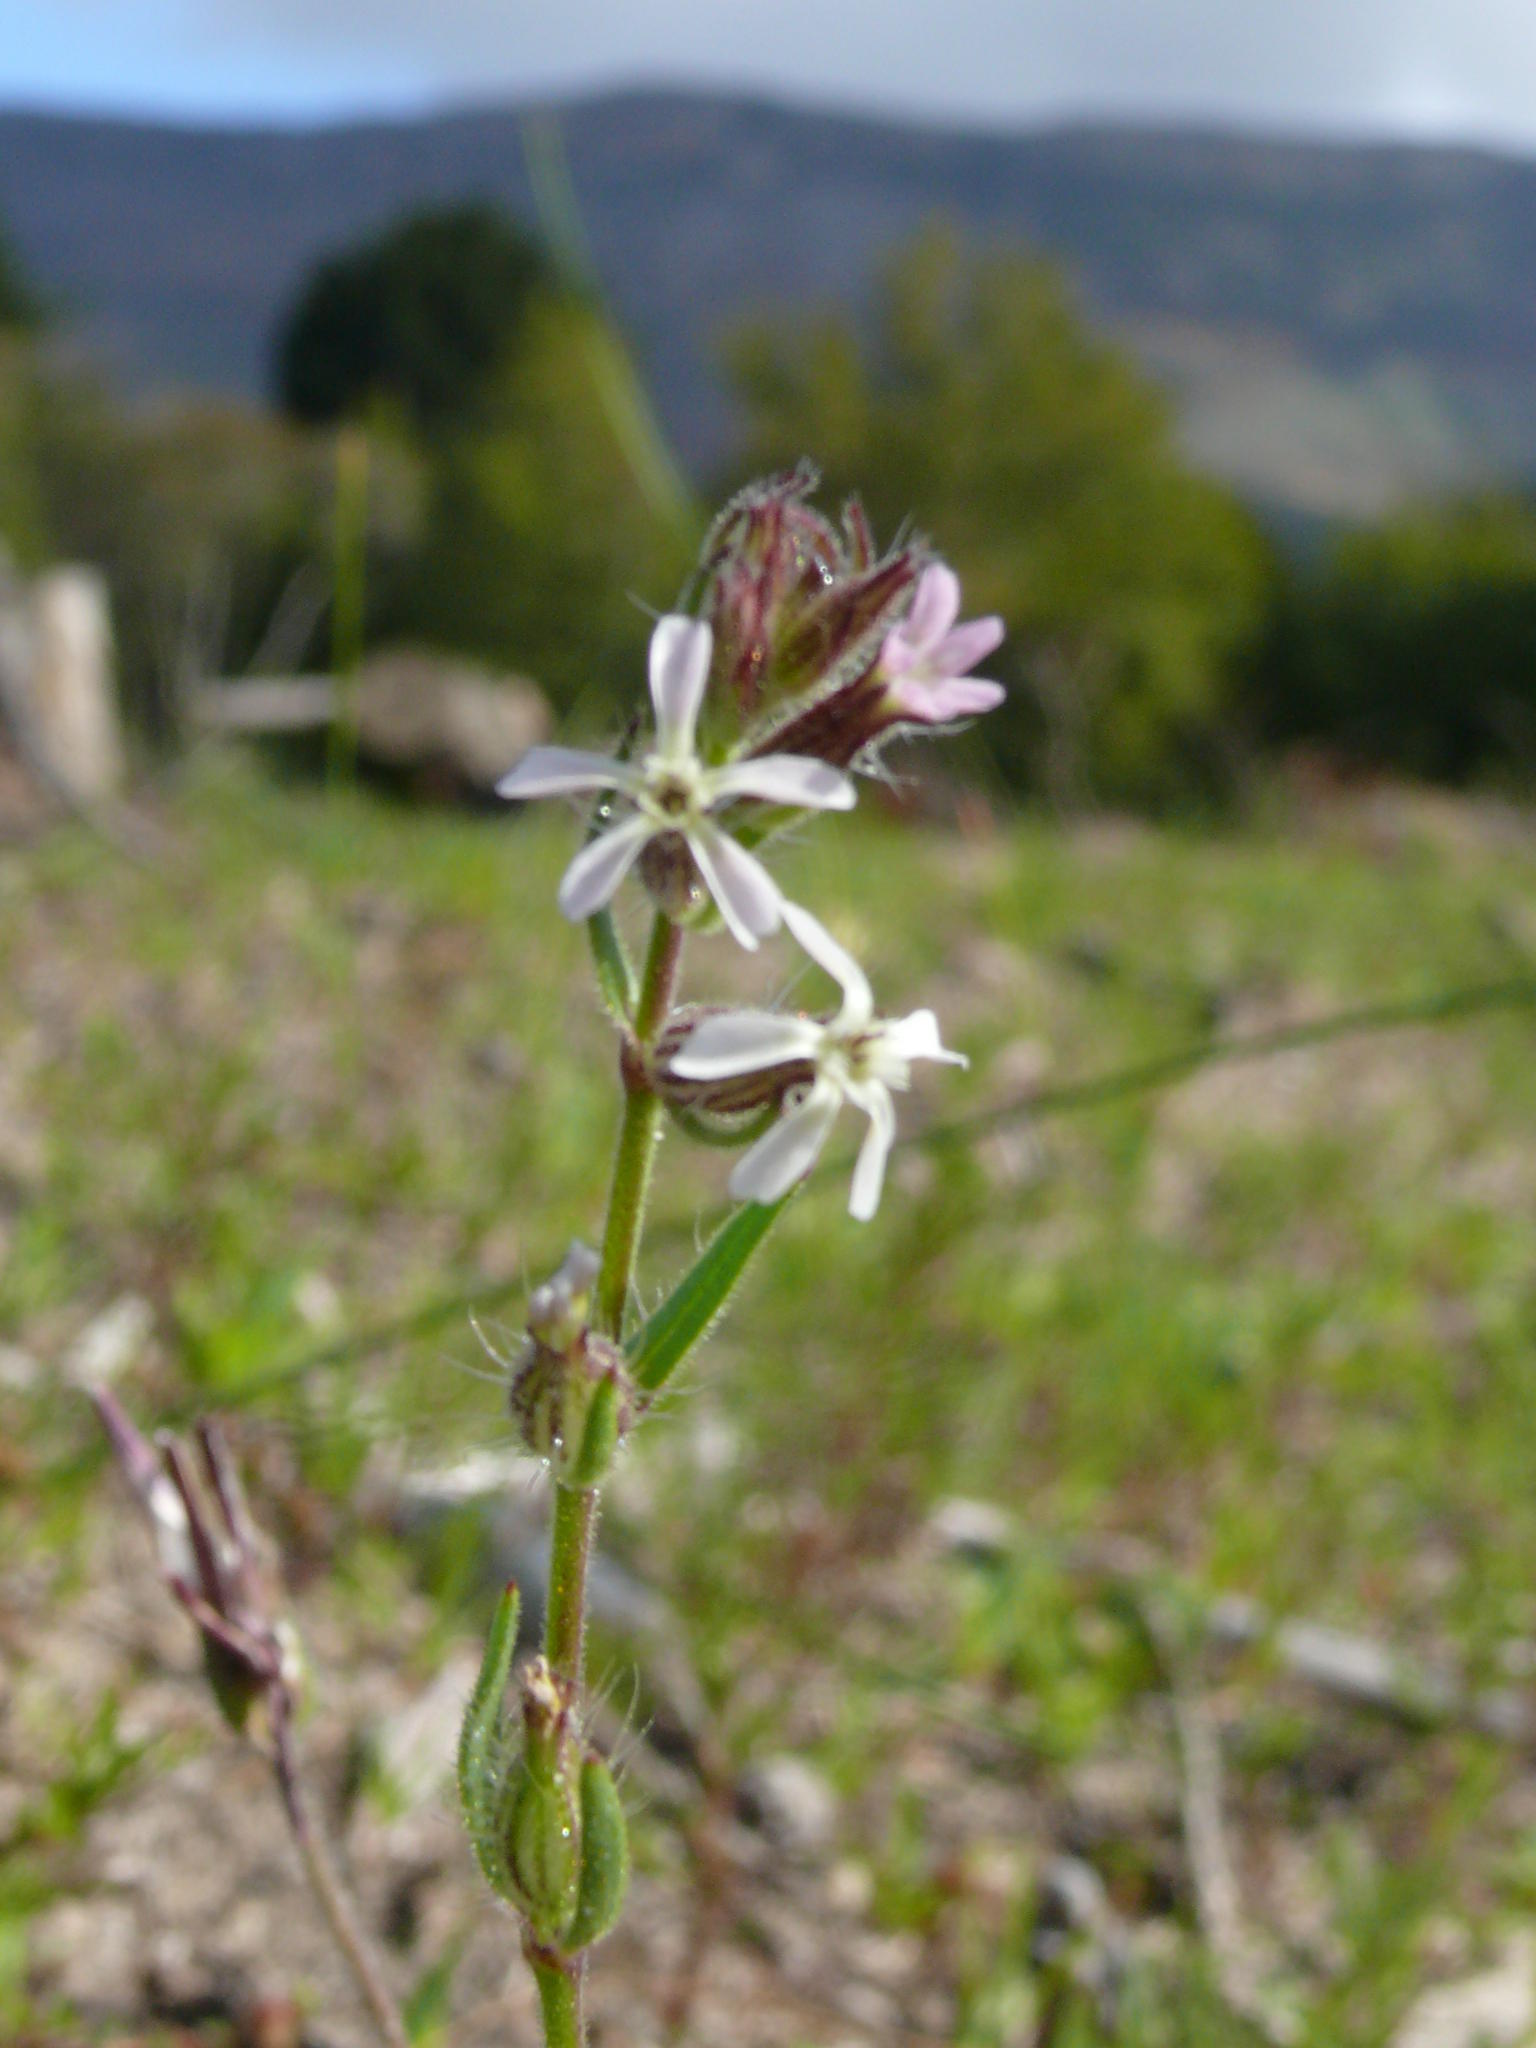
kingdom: Plantae
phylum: Tracheophyta
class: Magnoliopsida
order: Caryophyllales
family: Caryophyllaceae
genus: Silene
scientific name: Silene gallica
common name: Small-flowered catchfly
